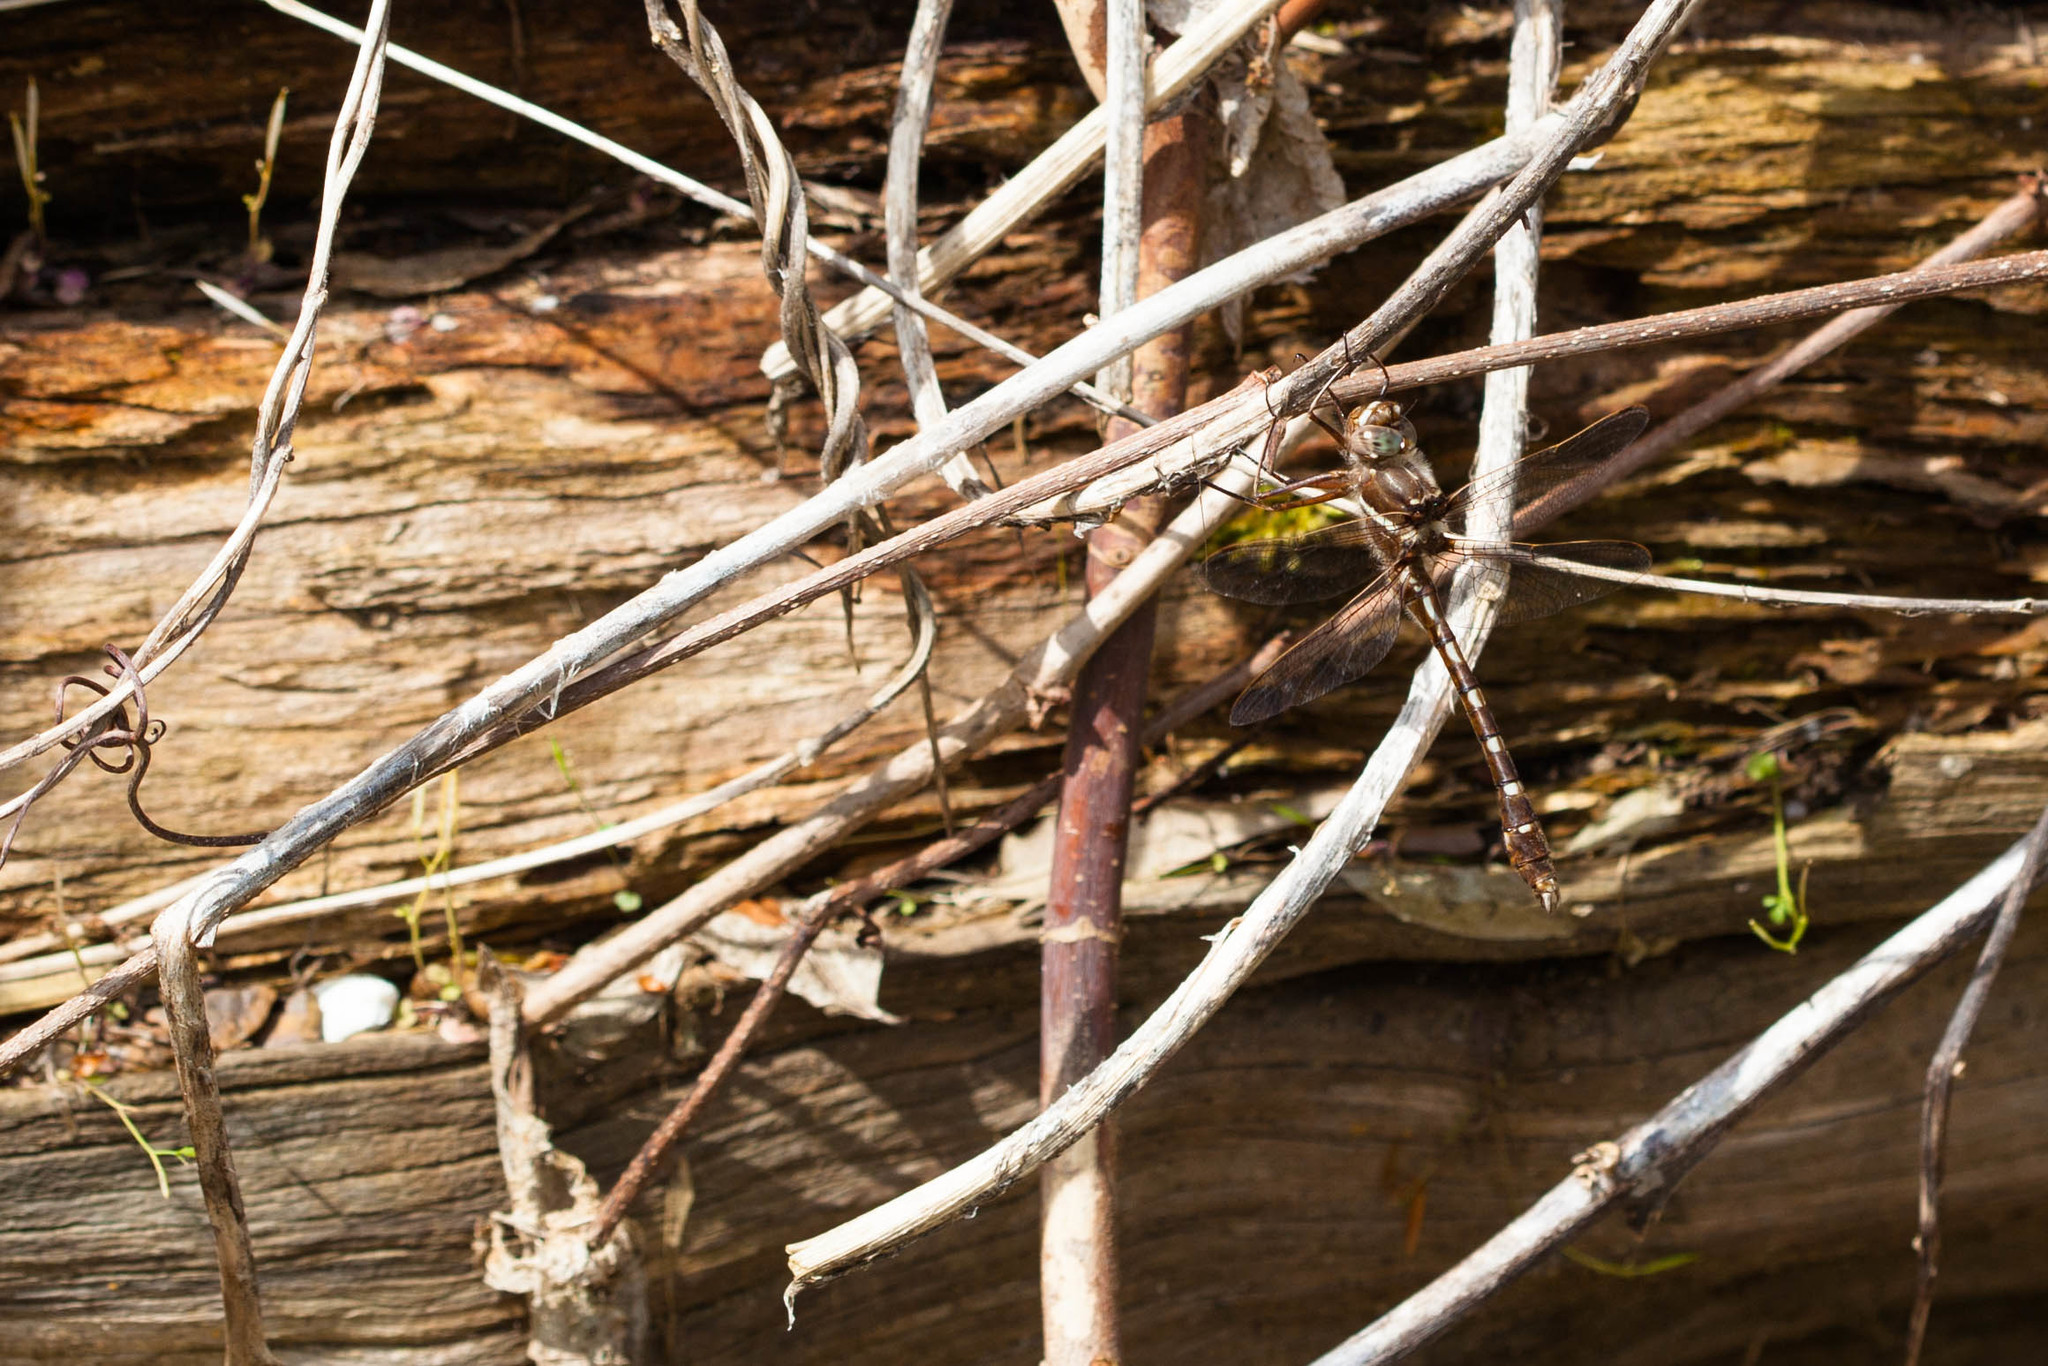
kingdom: Animalia
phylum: Arthropoda
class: Insecta
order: Odonata
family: Macromiidae
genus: Didymops
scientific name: Didymops transversa
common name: Stream cruiser
